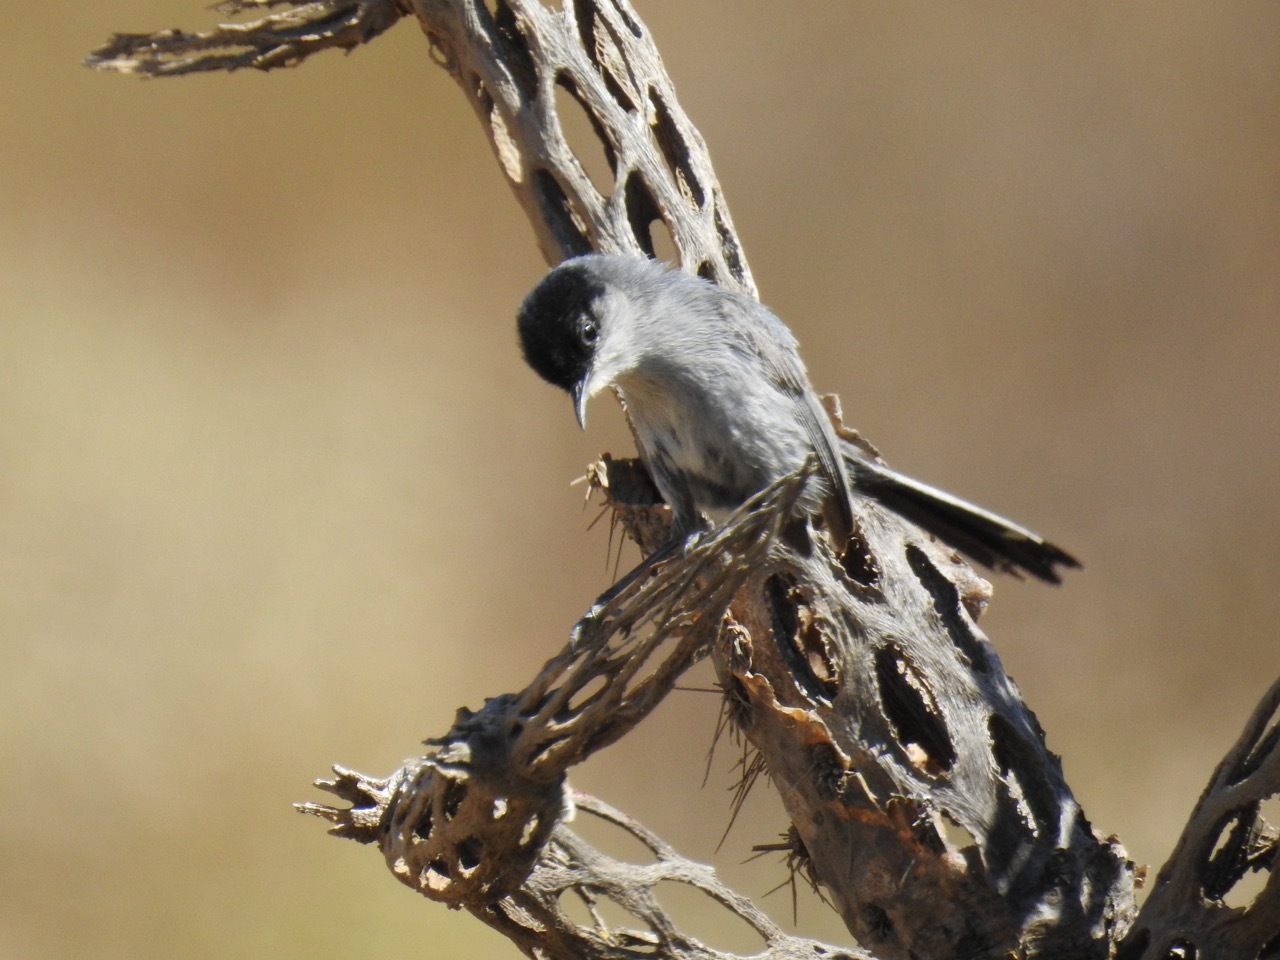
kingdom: Animalia
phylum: Chordata
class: Aves
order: Passeriformes
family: Polioptilidae
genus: Polioptila
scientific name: Polioptila californica
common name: California gnatcatcher
